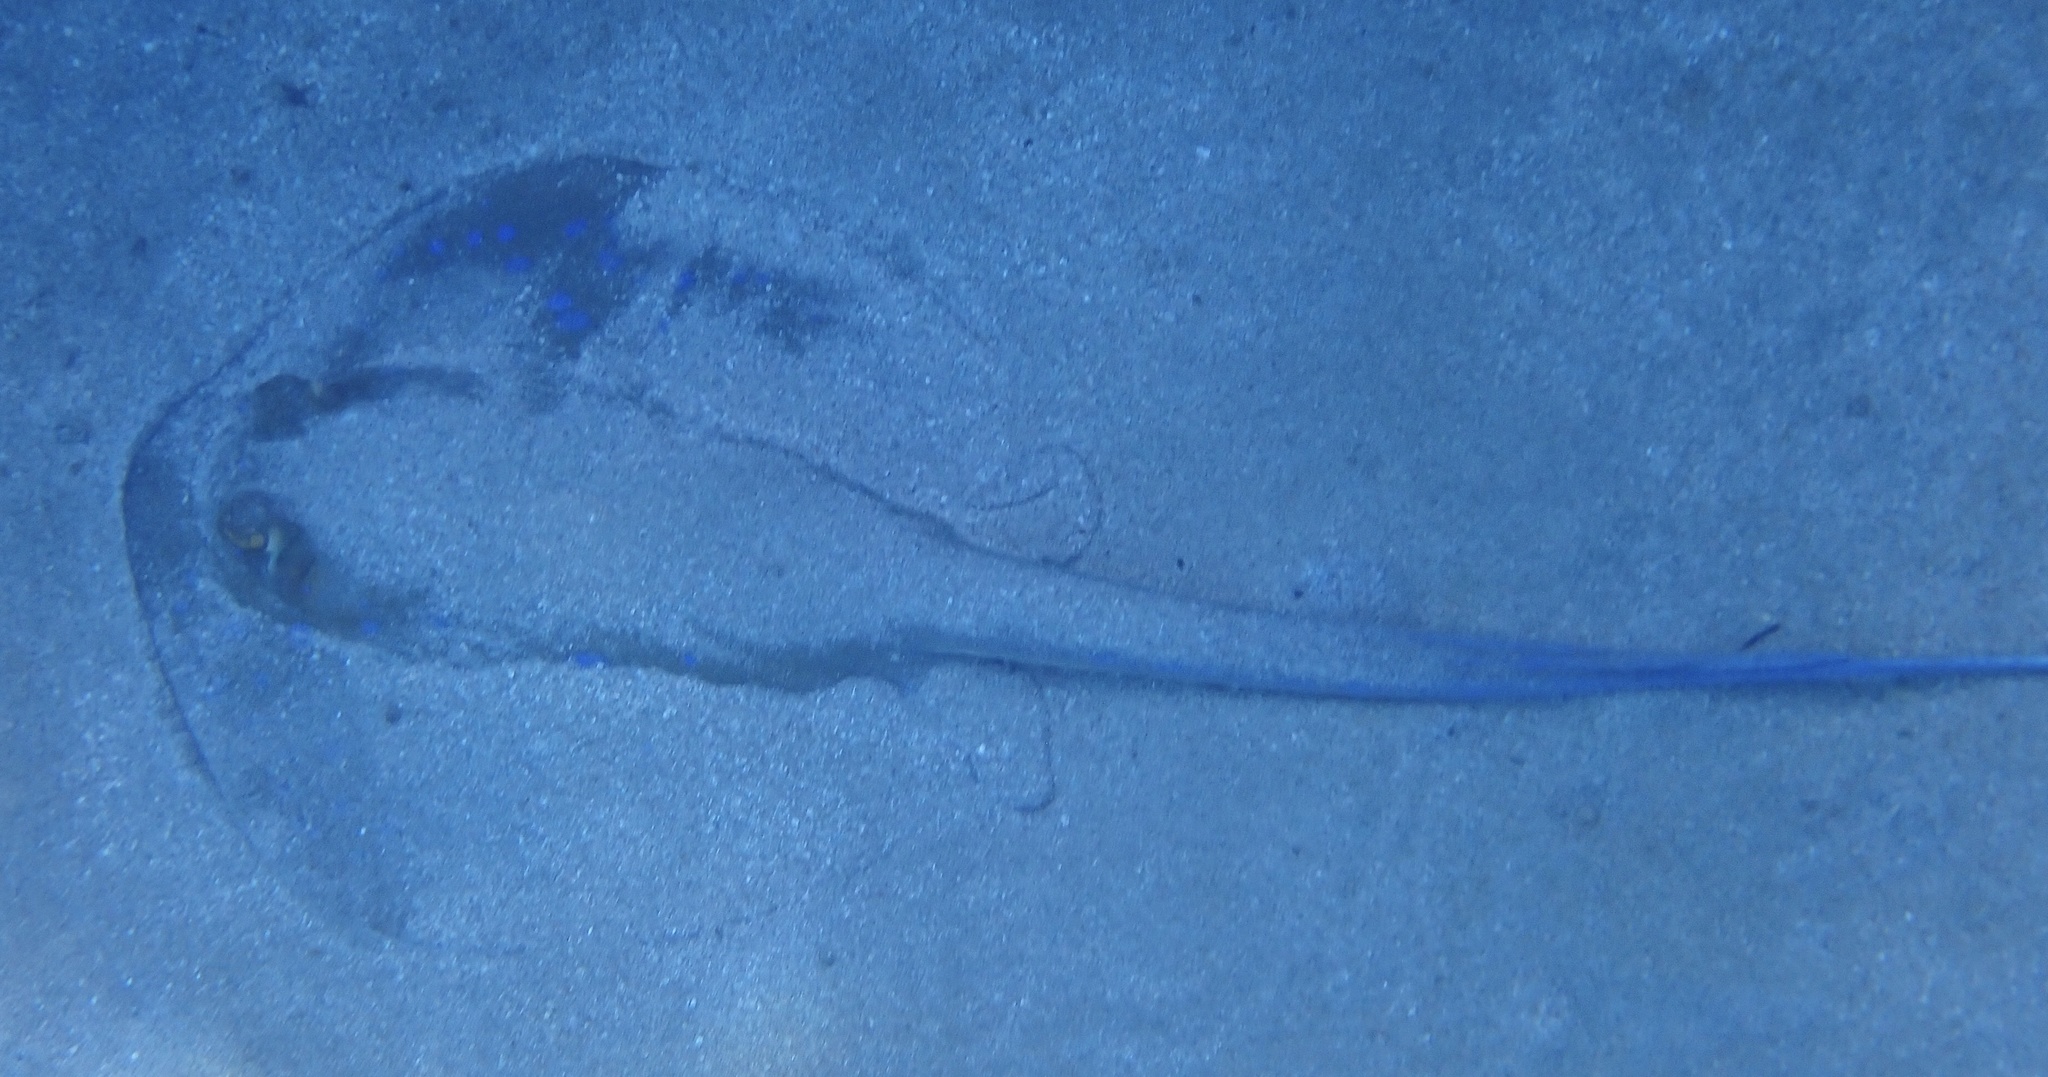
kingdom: Animalia
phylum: Chordata
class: Elasmobranchii
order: Myliobatiformes
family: Dasyatidae
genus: Taeniura
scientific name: Taeniura lymma
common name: Bluespotted ribbontail ray
